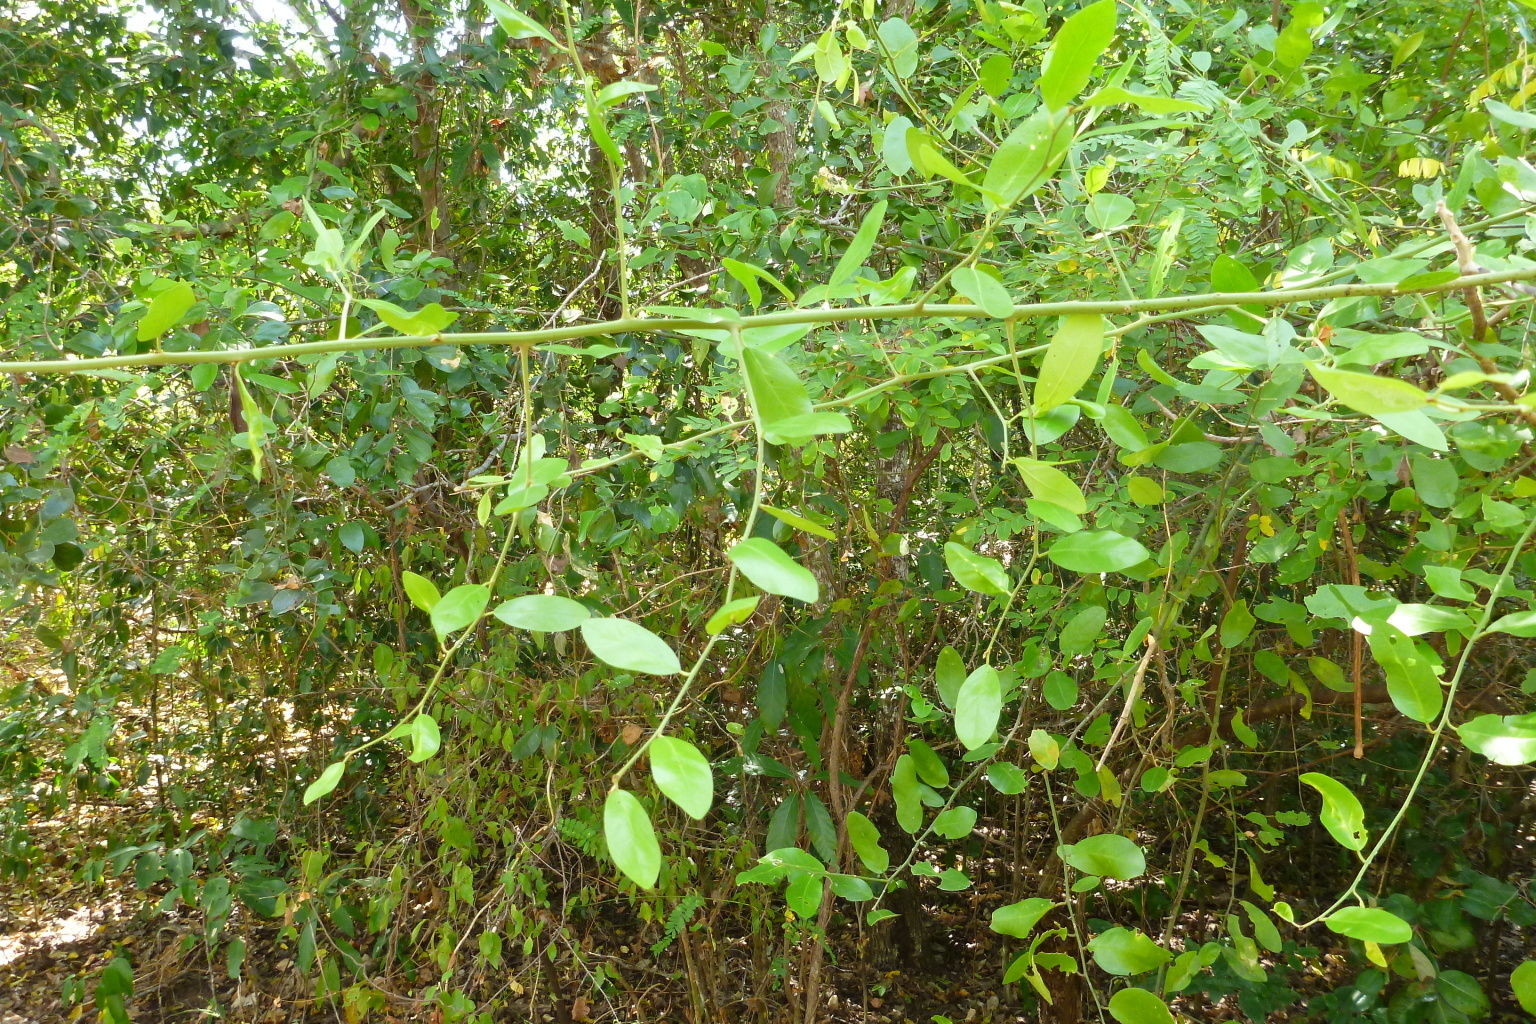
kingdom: Plantae
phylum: Tracheophyta
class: Magnoliopsida
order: Brassicales
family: Capparaceae
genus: Capparis
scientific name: Capparis lucida
